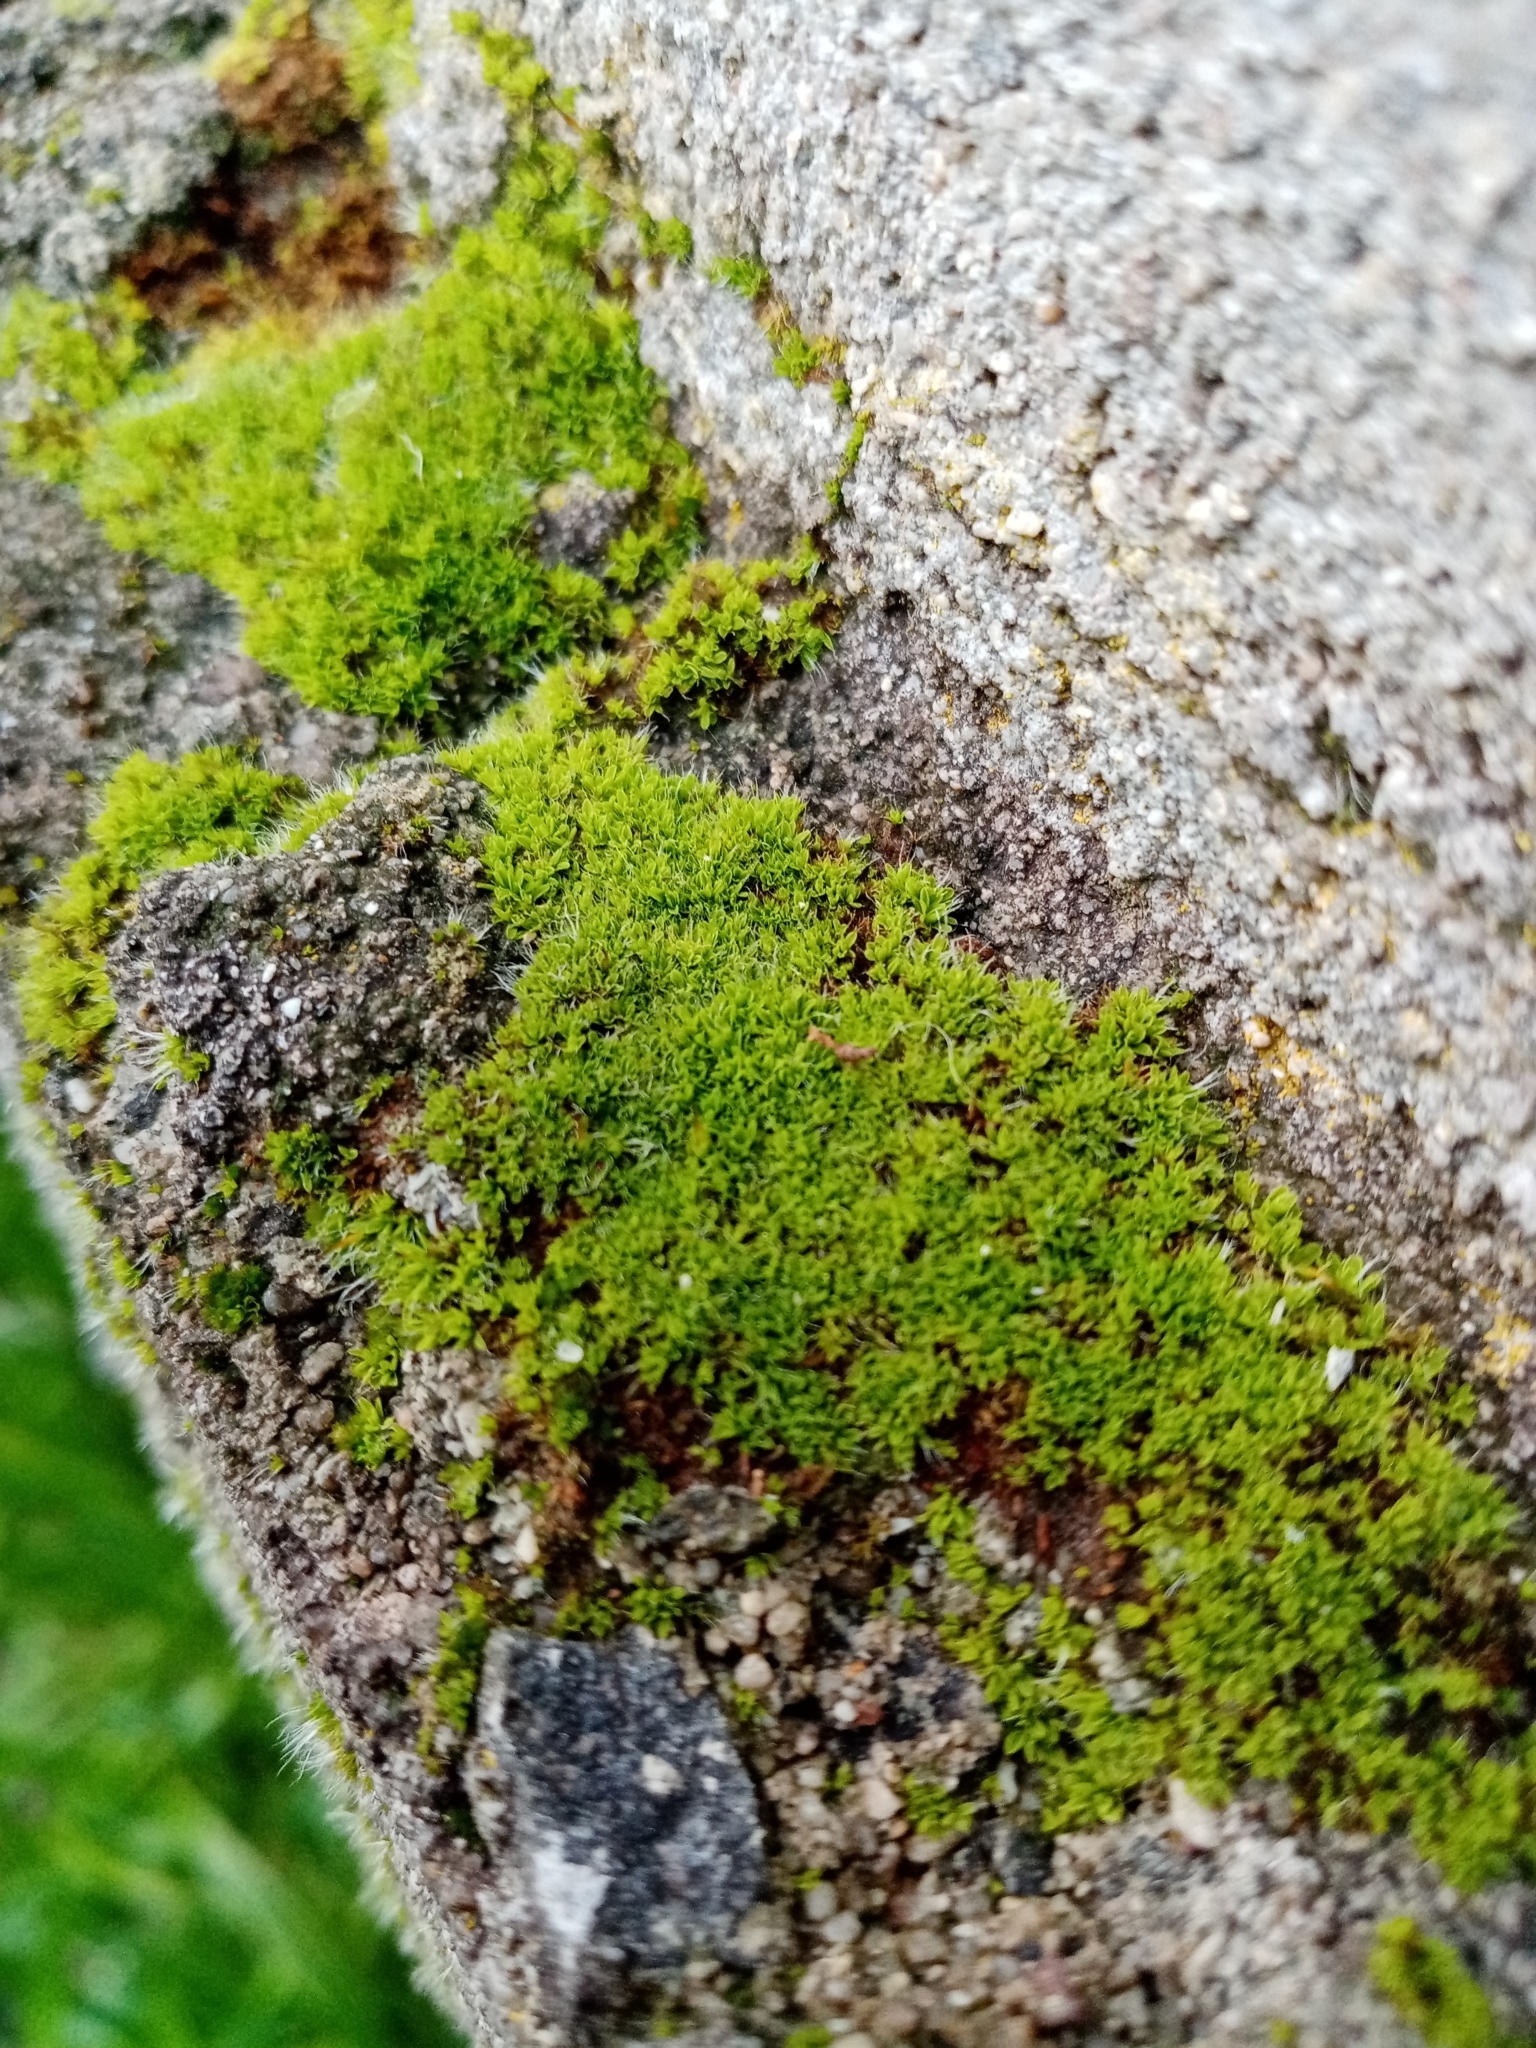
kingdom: Plantae
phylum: Bryophyta
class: Bryopsida
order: Pottiales
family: Pottiaceae
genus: Tortula
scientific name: Tortula muralis
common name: Wall screw-moss
